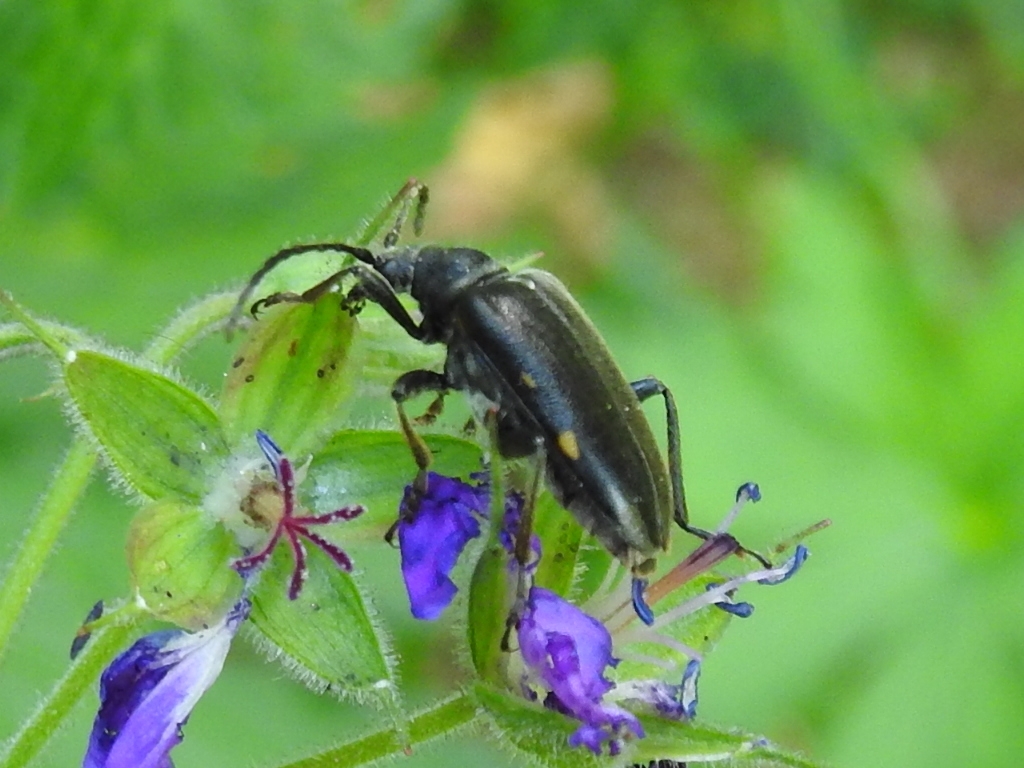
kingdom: Animalia
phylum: Arthropoda
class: Insecta
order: Coleoptera
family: Cerambycidae
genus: Brachyta
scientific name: Brachyta interrogationis
